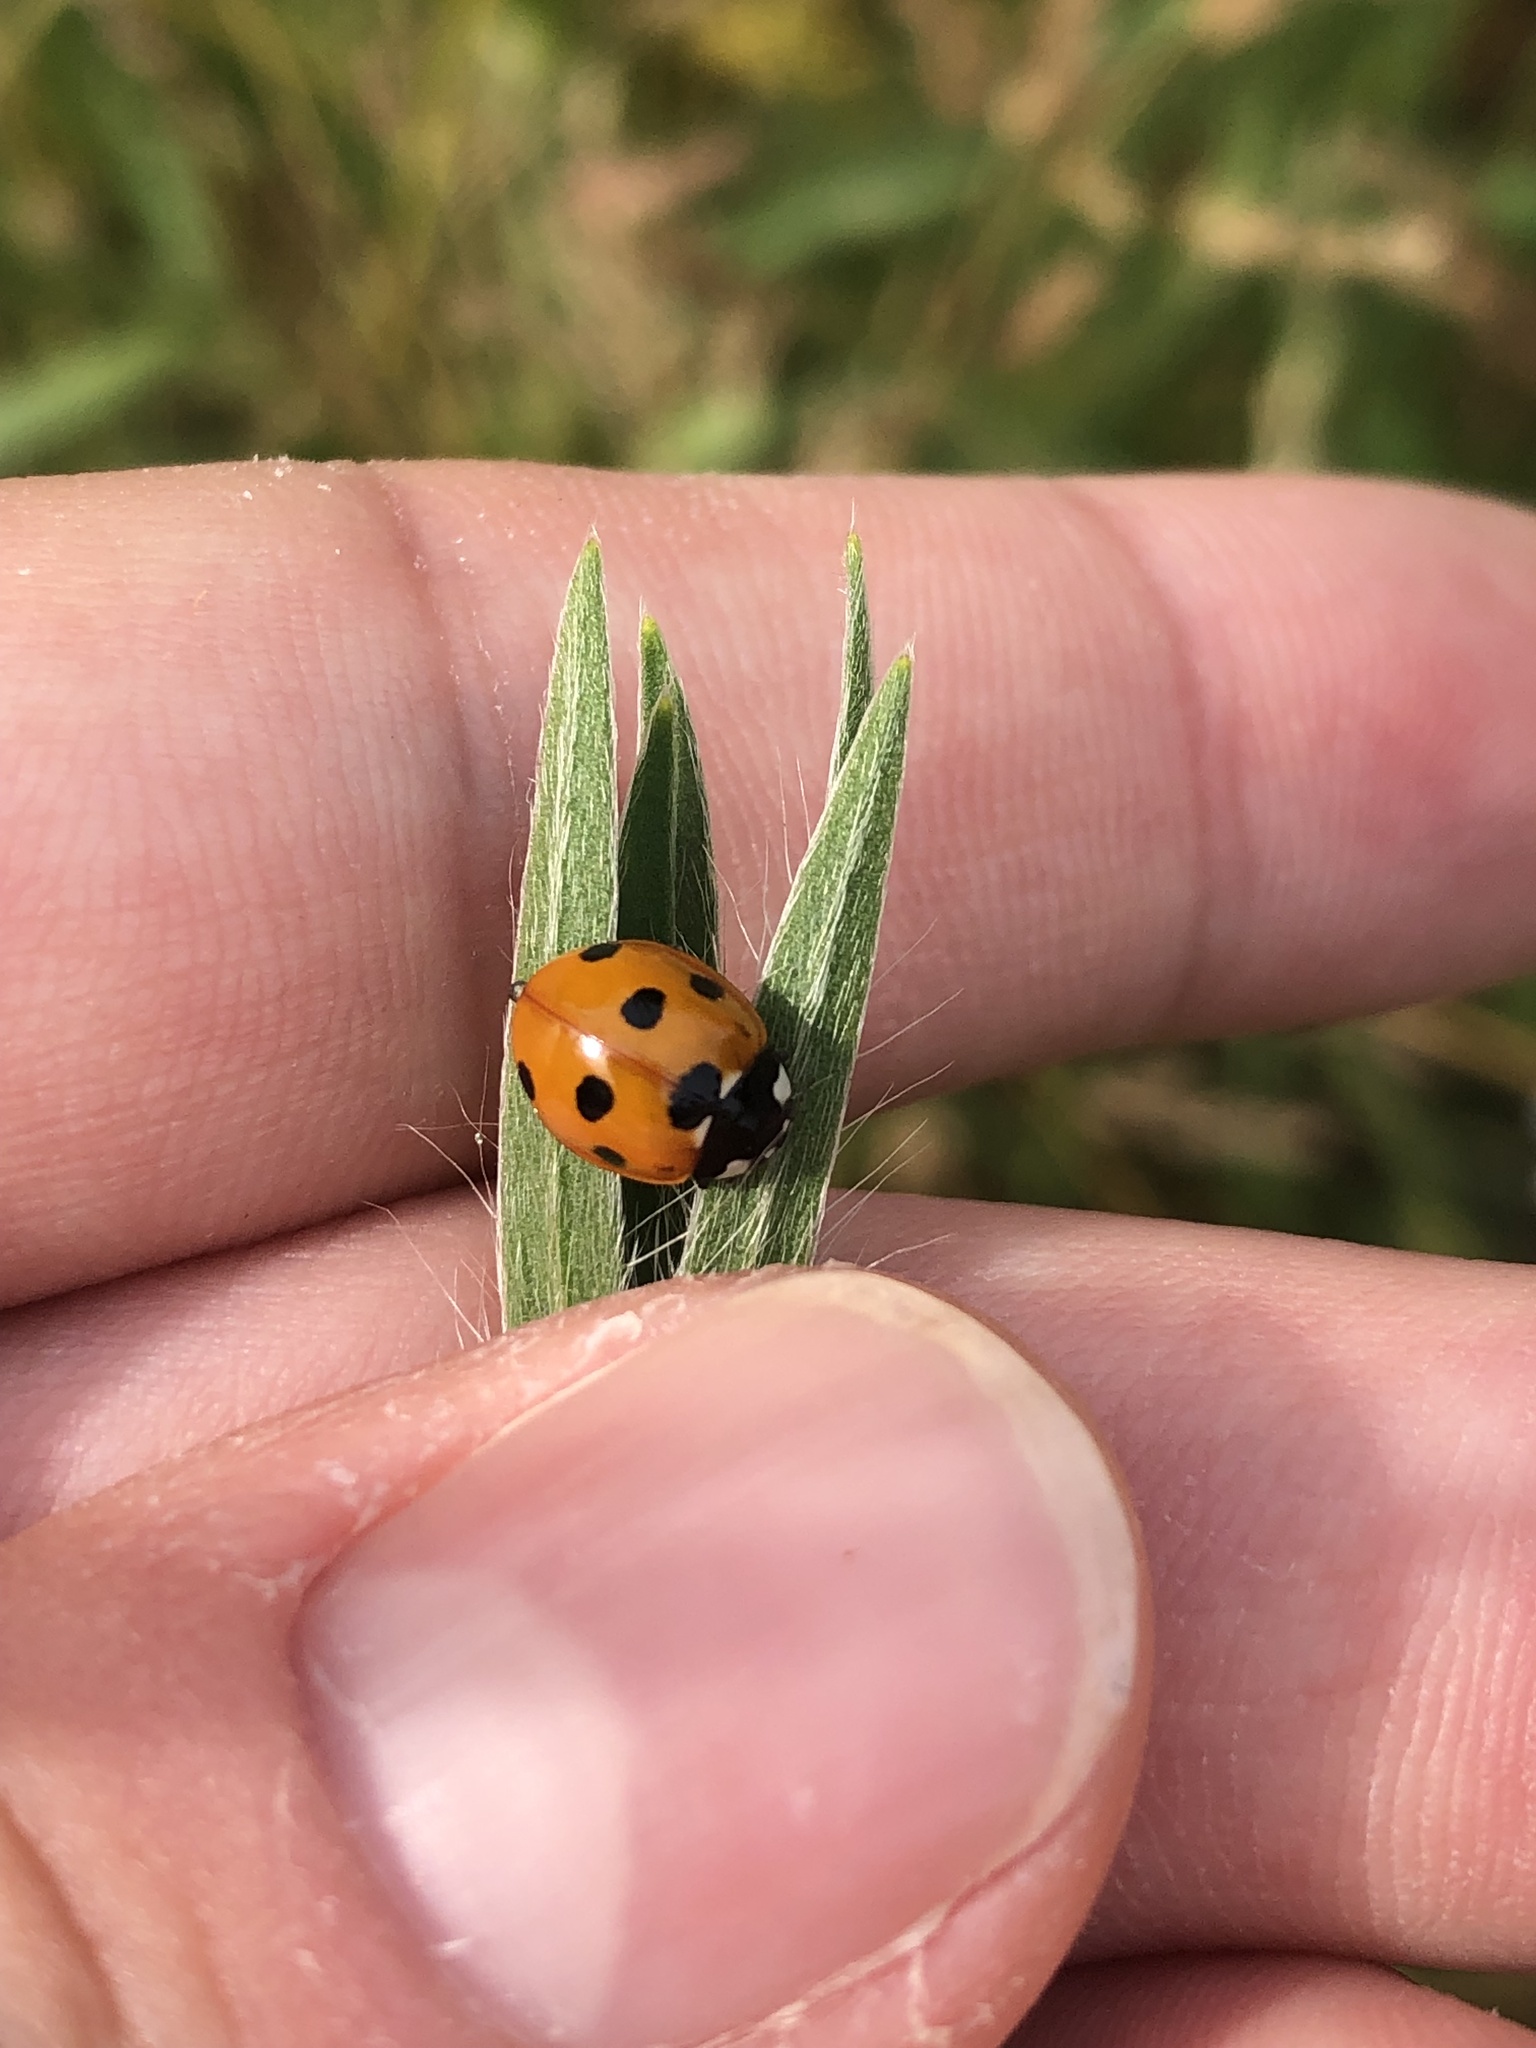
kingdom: Animalia
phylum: Arthropoda
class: Insecta
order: Coleoptera
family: Coccinellidae
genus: Coccinella
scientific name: Coccinella septempunctata
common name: Sevenspotted lady beetle
